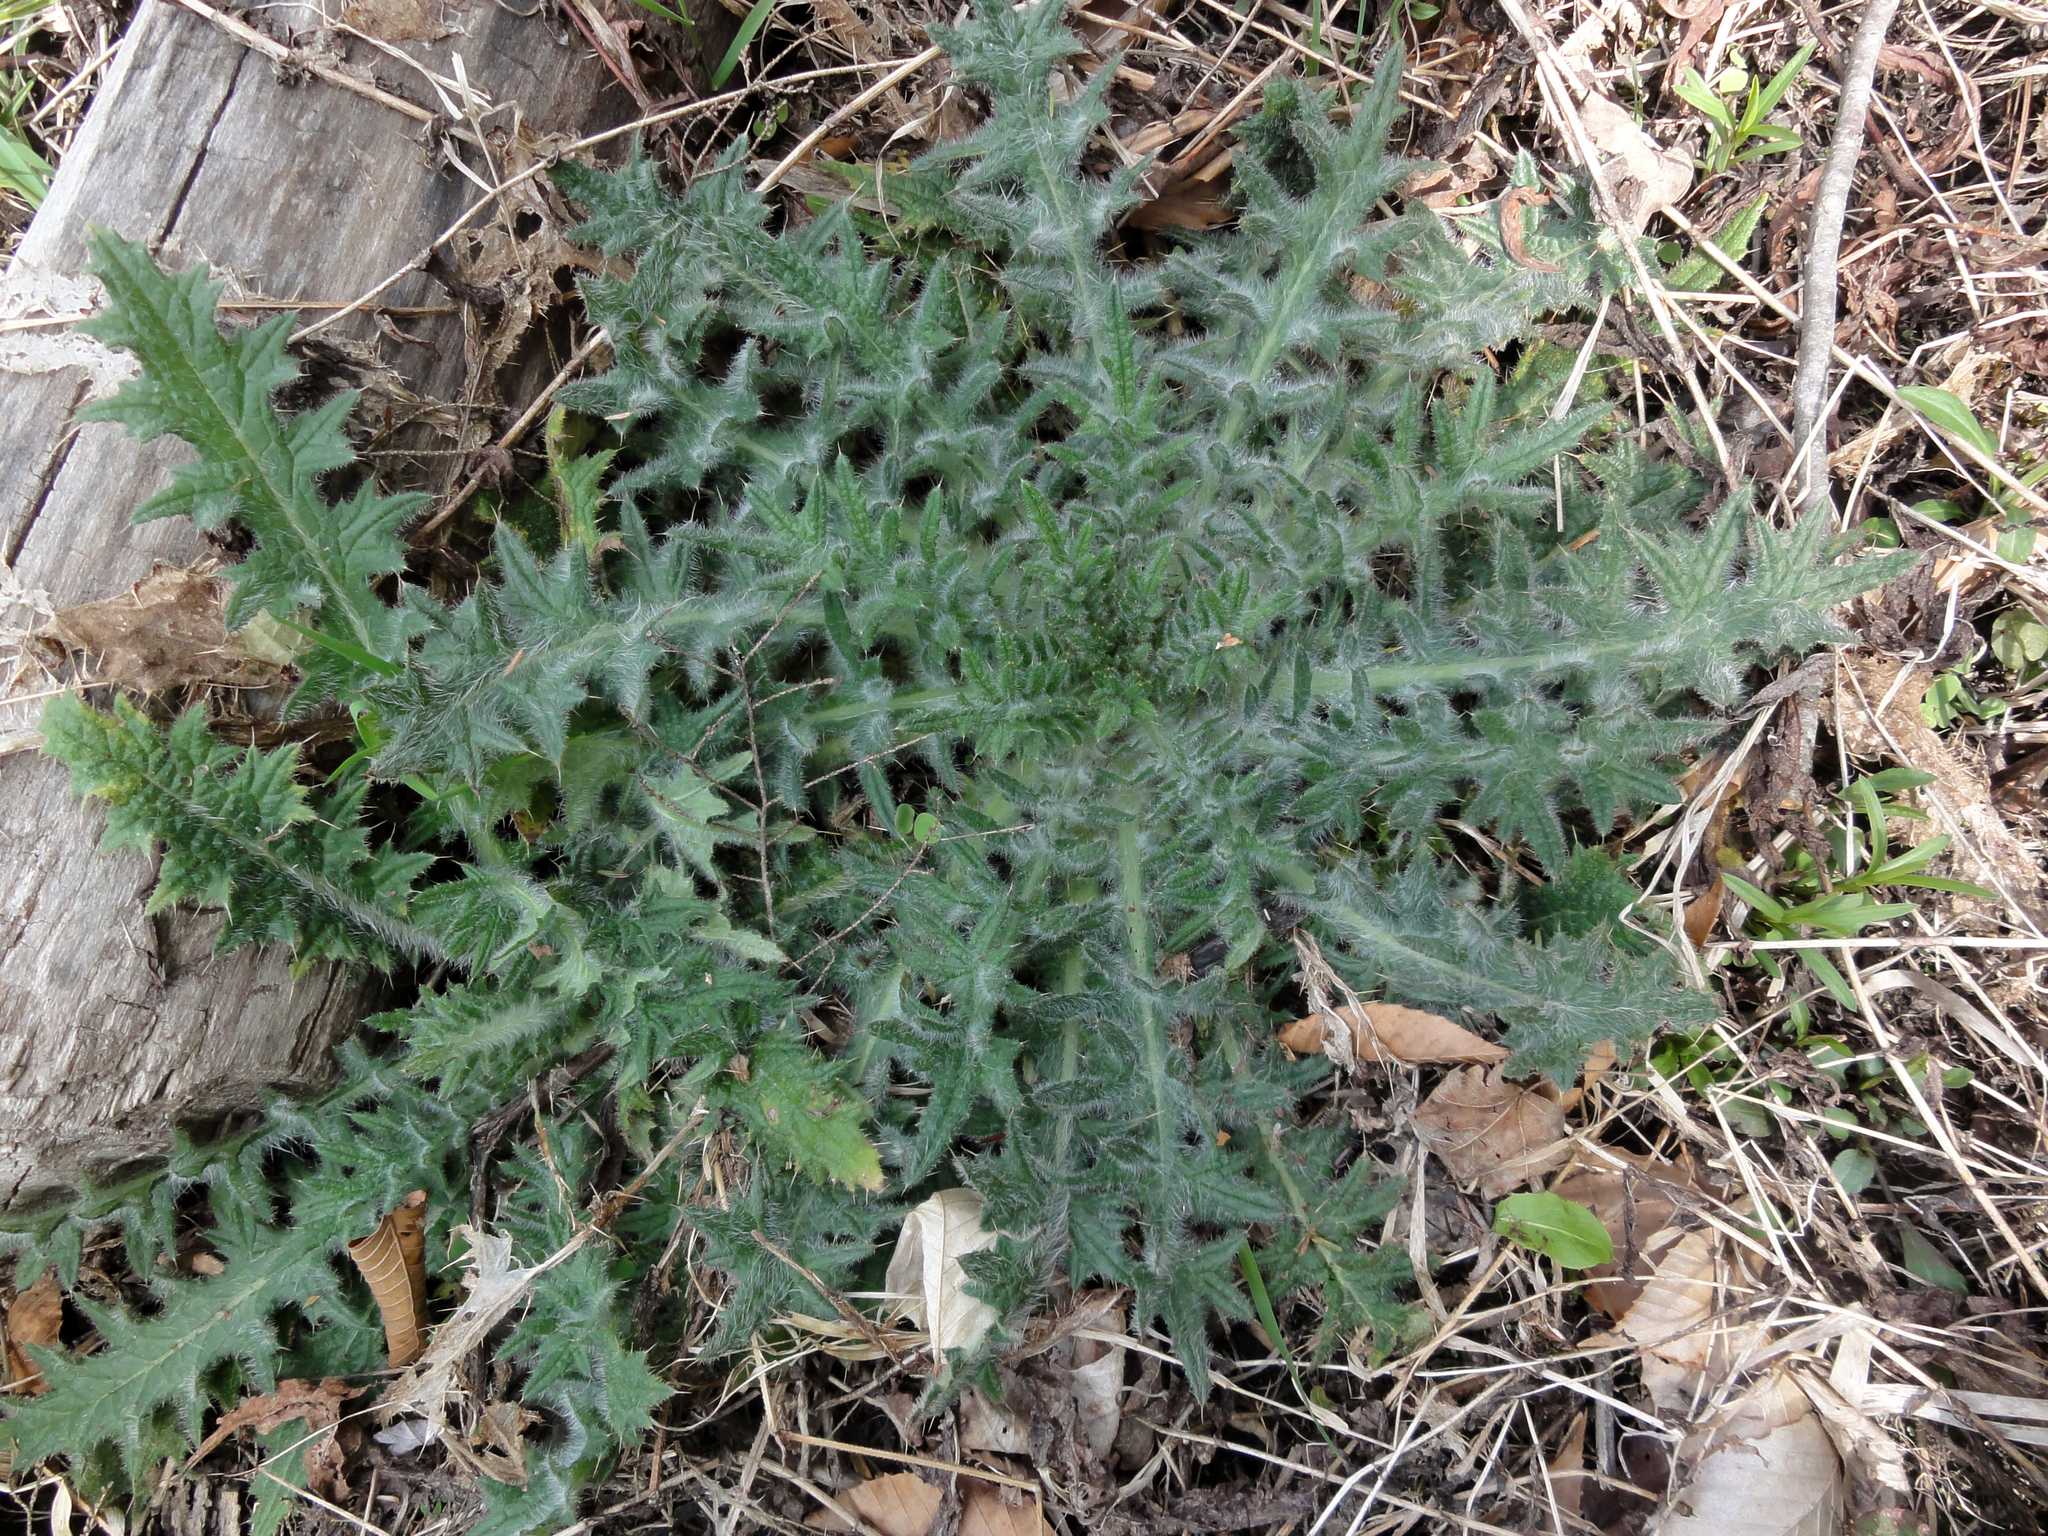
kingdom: Plantae
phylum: Tracheophyta
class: Magnoliopsida
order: Asterales
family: Asteraceae
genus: Cirsium
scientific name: Cirsium vulgare
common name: Bull thistle
